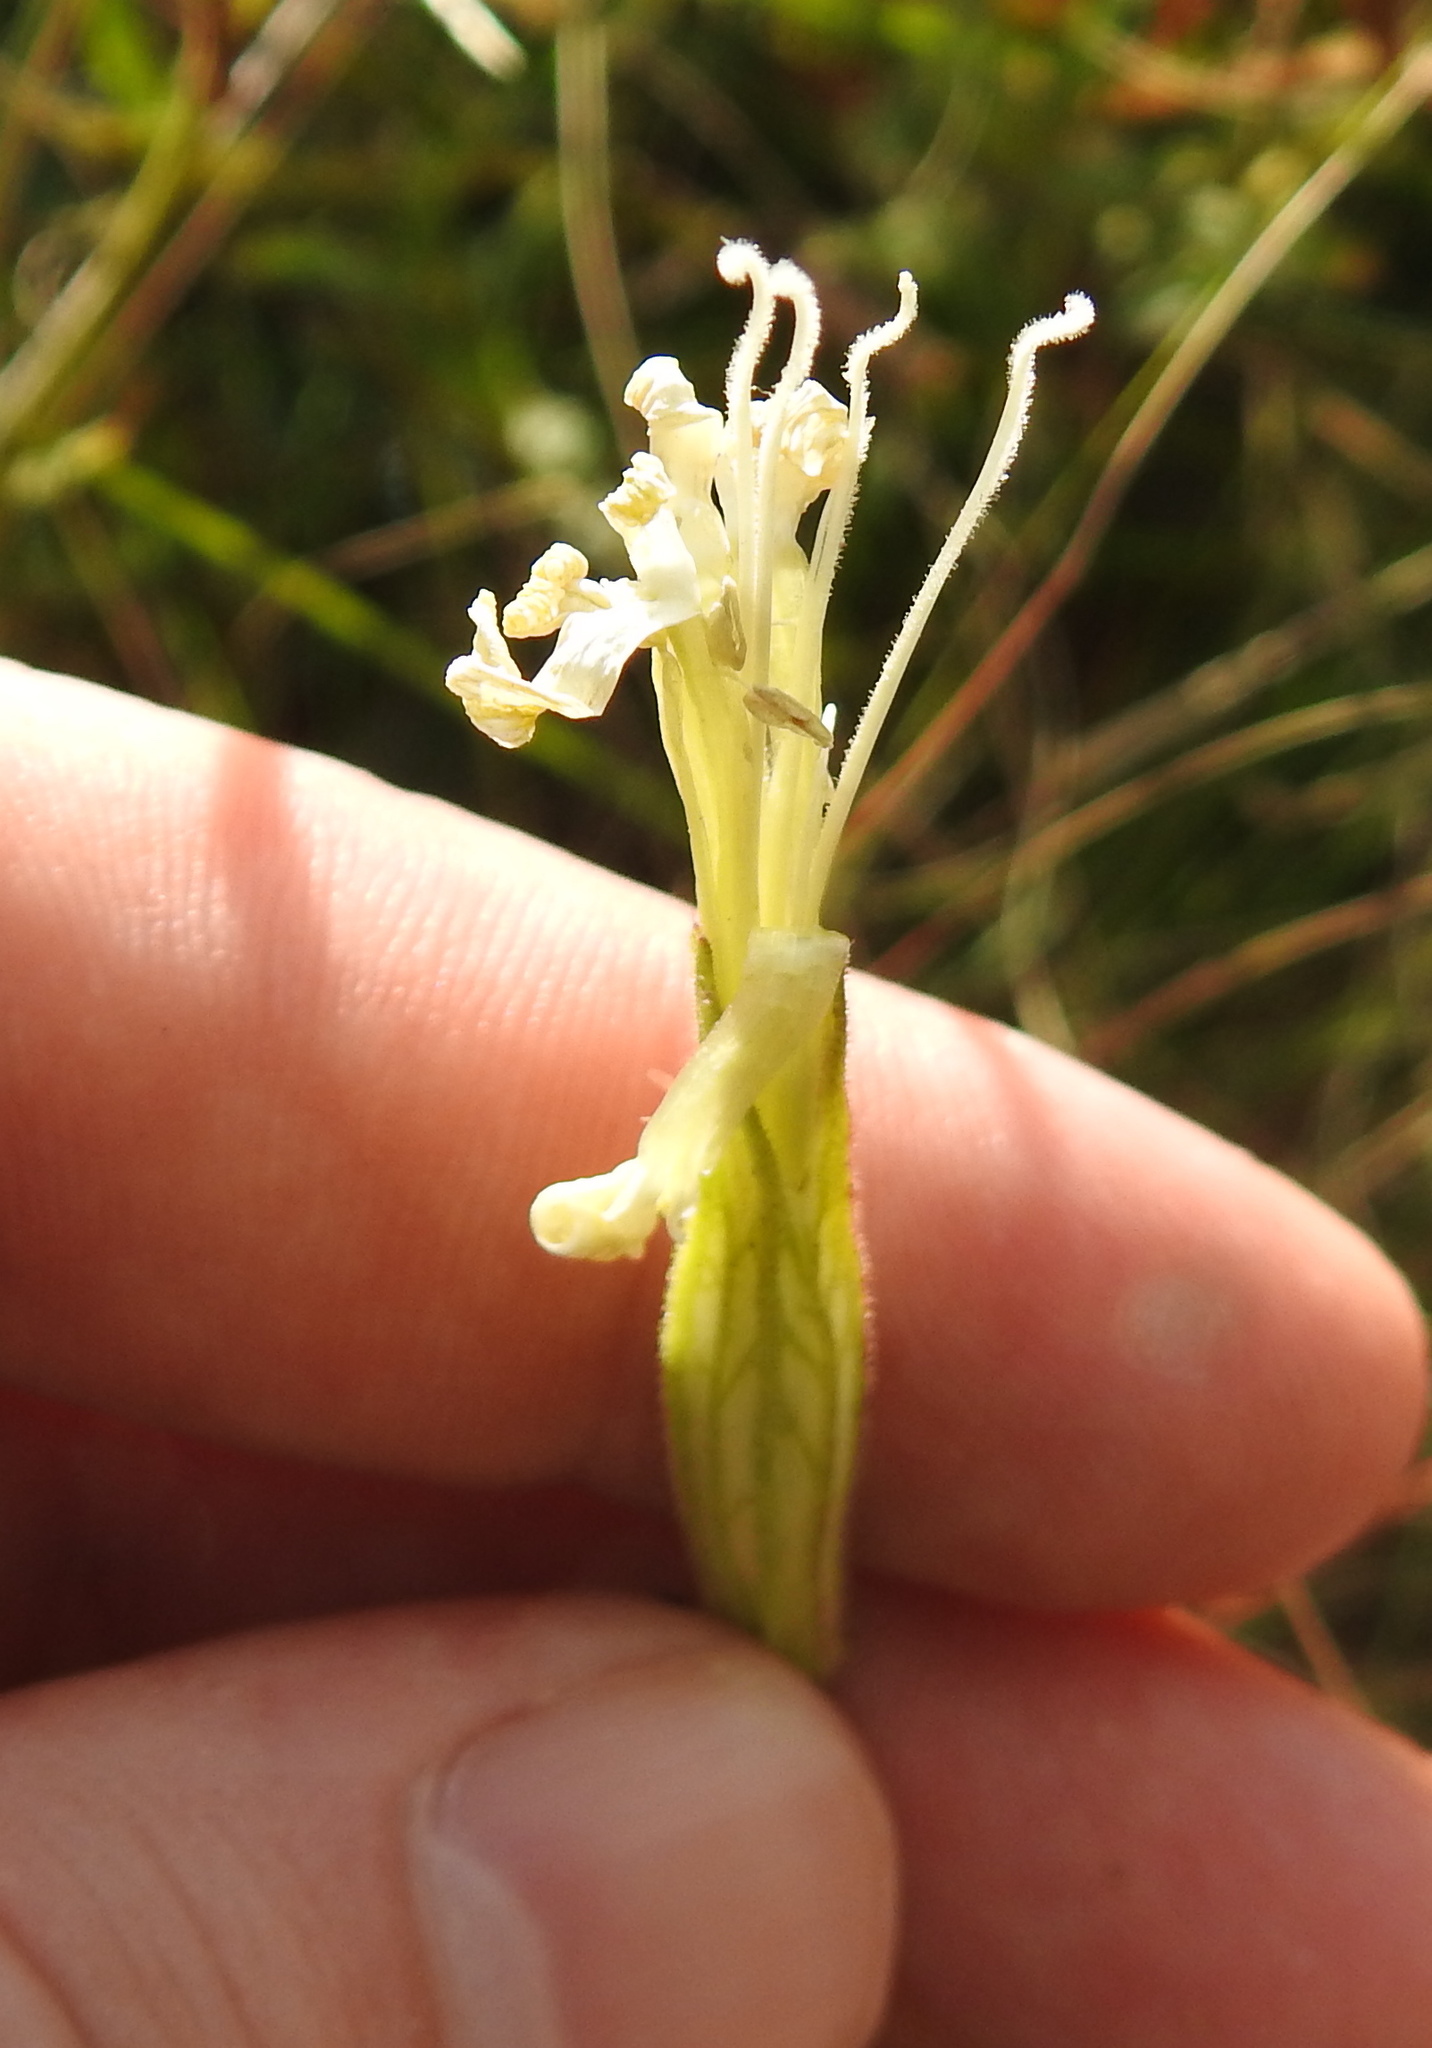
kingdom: Plantae
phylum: Tracheophyta
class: Magnoliopsida
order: Myrtales
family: Onagraceae
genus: Oenothera
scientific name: Oenothera tetraptera
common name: Four-wing evening-primrose
